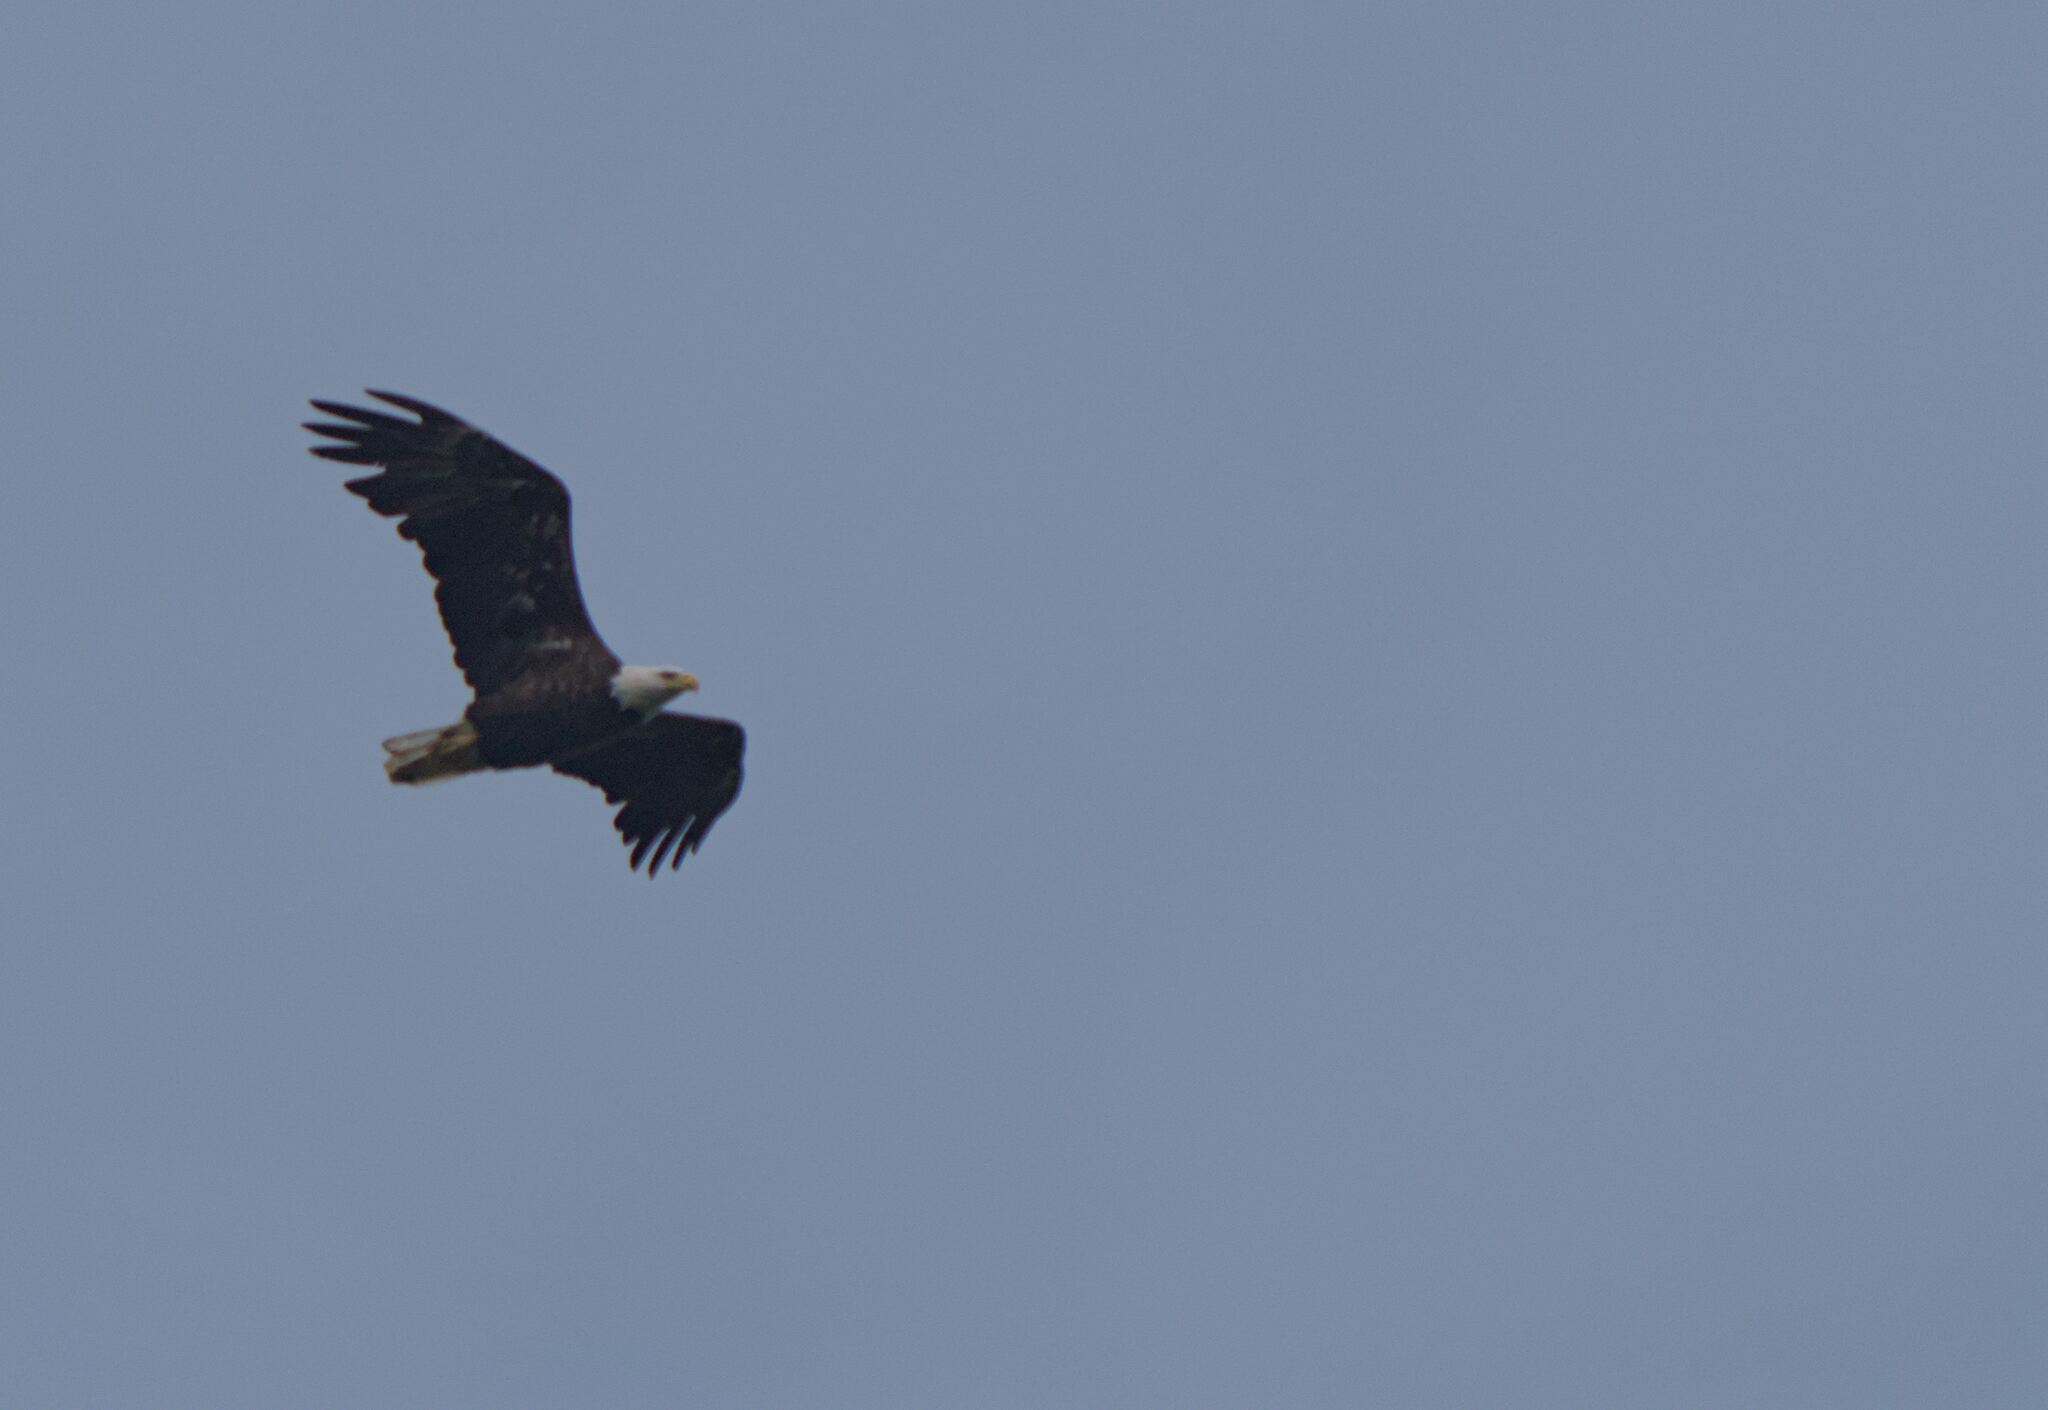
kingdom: Animalia
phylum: Chordata
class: Aves
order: Accipitriformes
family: Accipitridae
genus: Haliaeetus
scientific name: Haliaeetus leucocephalus
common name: Bald eagle
